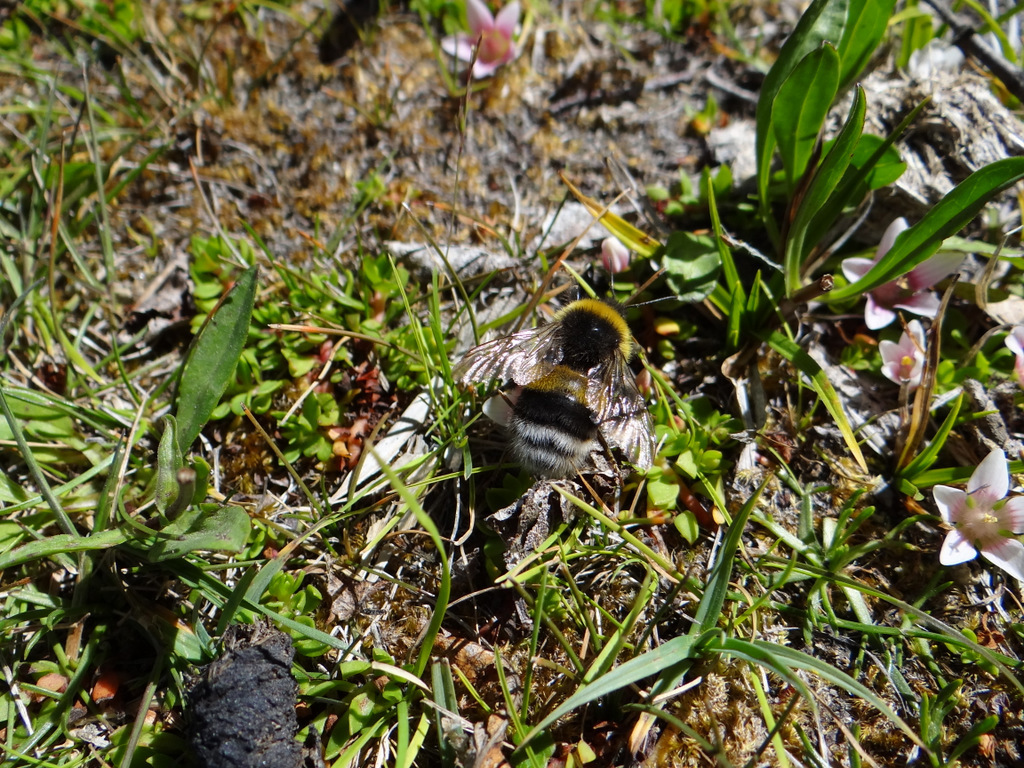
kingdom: Animalia
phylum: Arthropoda
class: Insecta
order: Hymenoptera
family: Apidae
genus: Bombus
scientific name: Bombus terrestris
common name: Buff-tailed bumblebee
